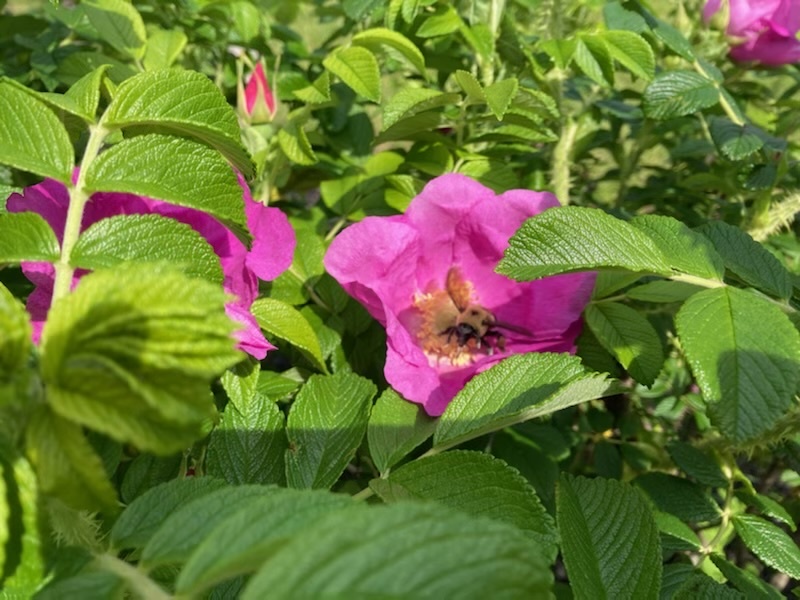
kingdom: Plantae
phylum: Tracheophyta
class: Magnoliopsida
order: Rosales
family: Rosaceae
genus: Rosa
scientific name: Rosa rugosa
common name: Japanese rose
